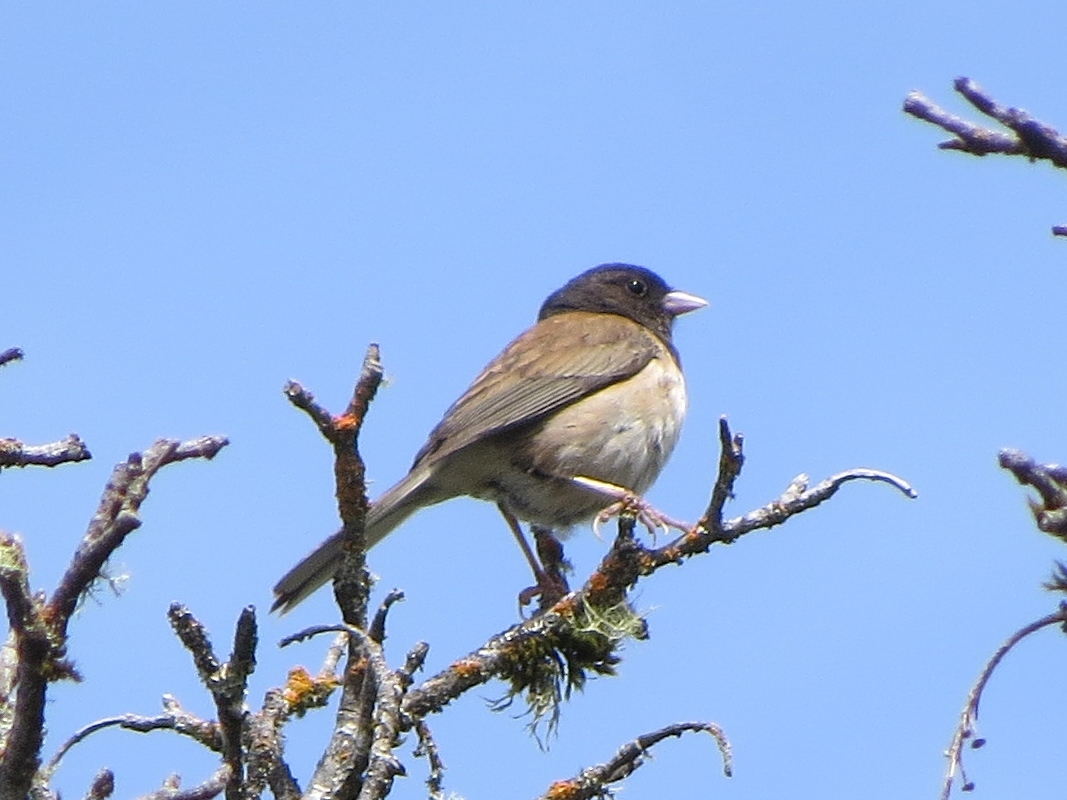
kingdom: Animalia
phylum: Chordata
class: Aves
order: Passeriformes
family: Passerellidae
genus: Junco
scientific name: Junco hyemalis
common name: Dark-eyed junco
